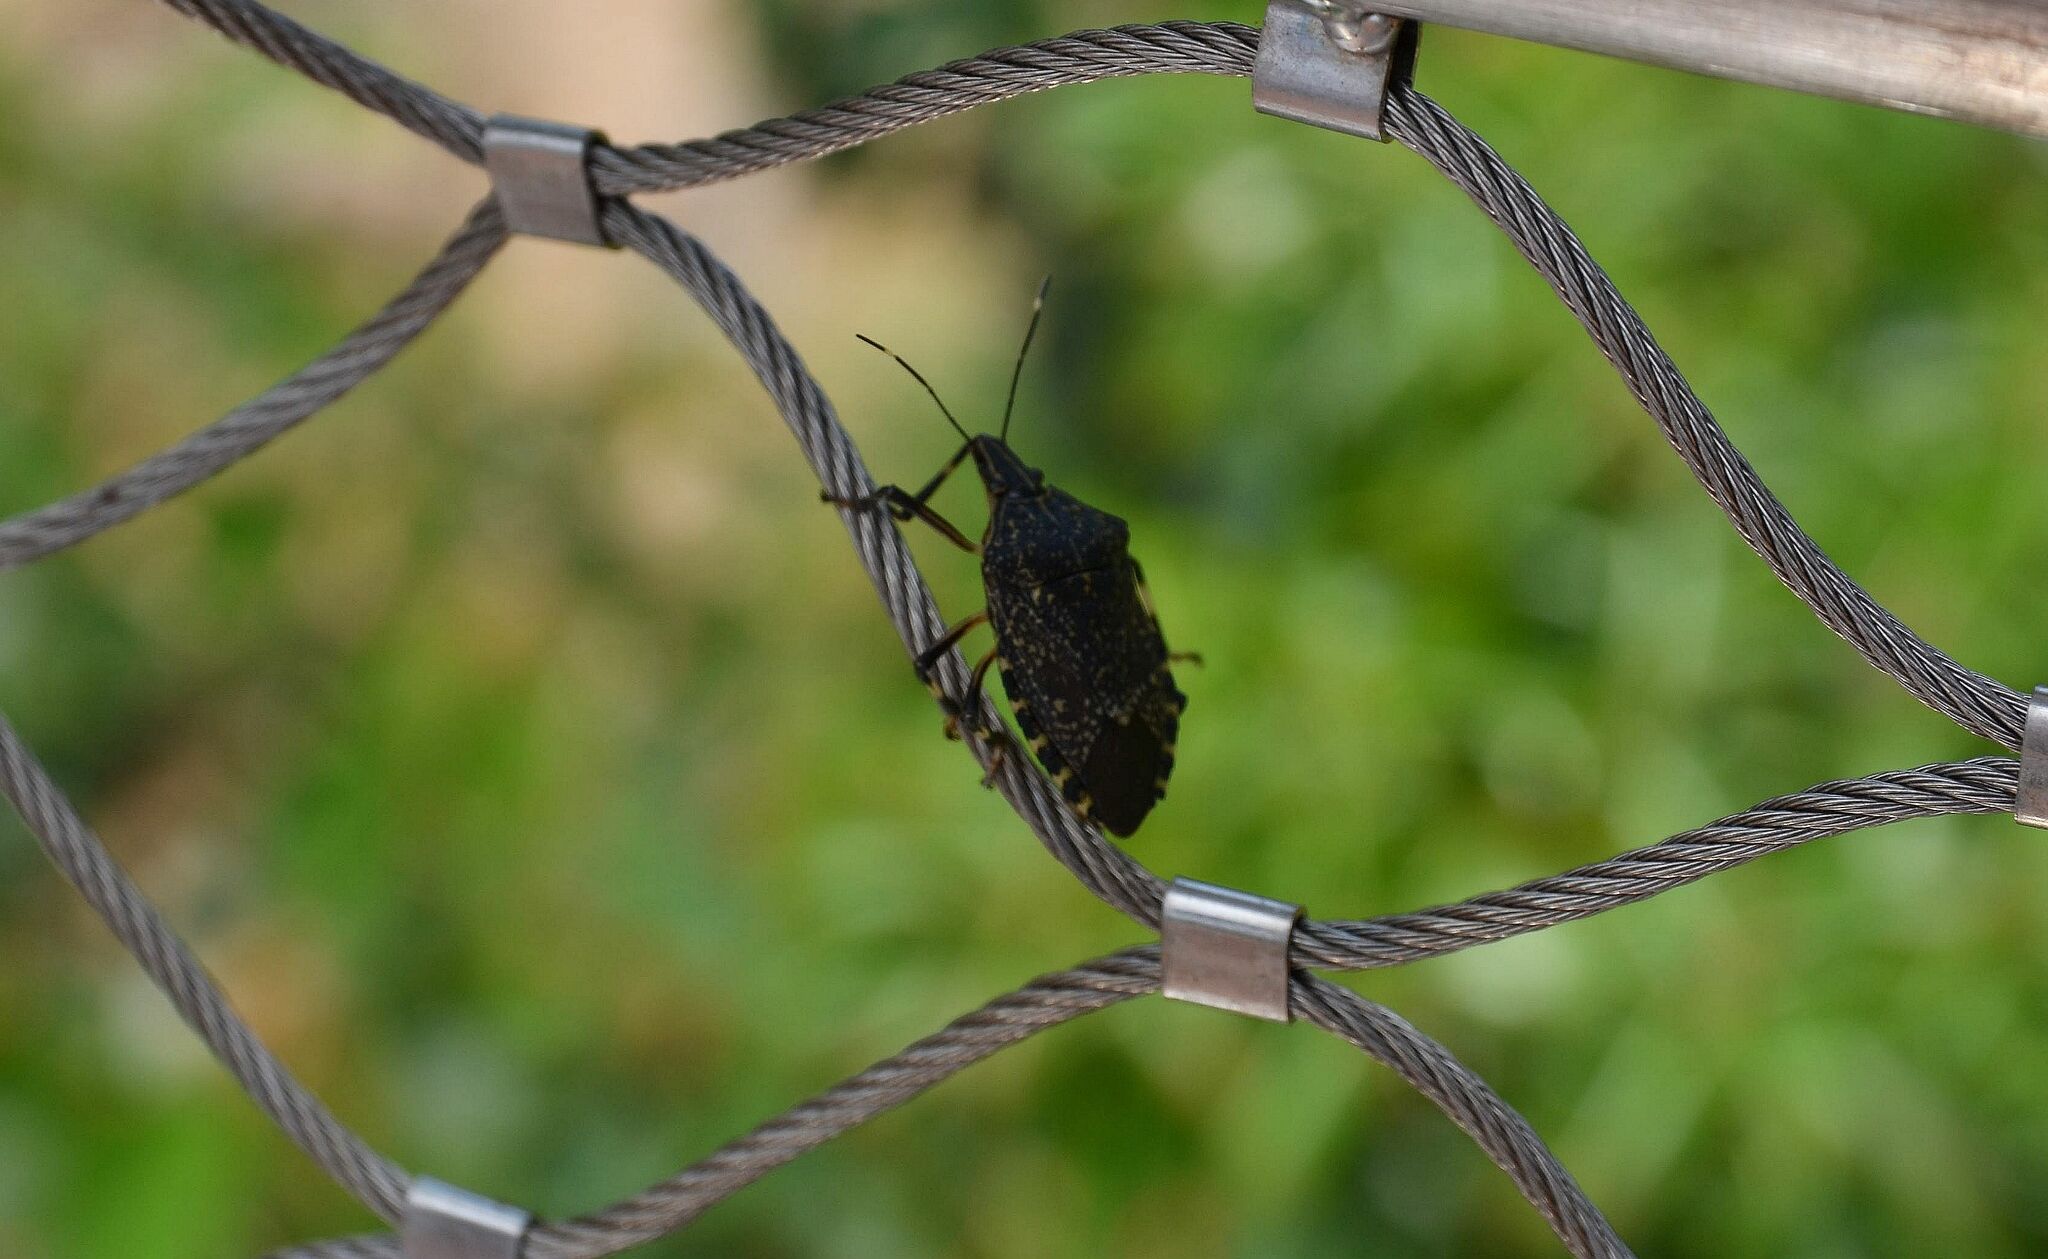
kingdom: Animalia
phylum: Arthropoda
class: Insecta
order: Hemiptera
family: Pentatomidae
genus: Erthesina
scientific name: Erthesina fullo
